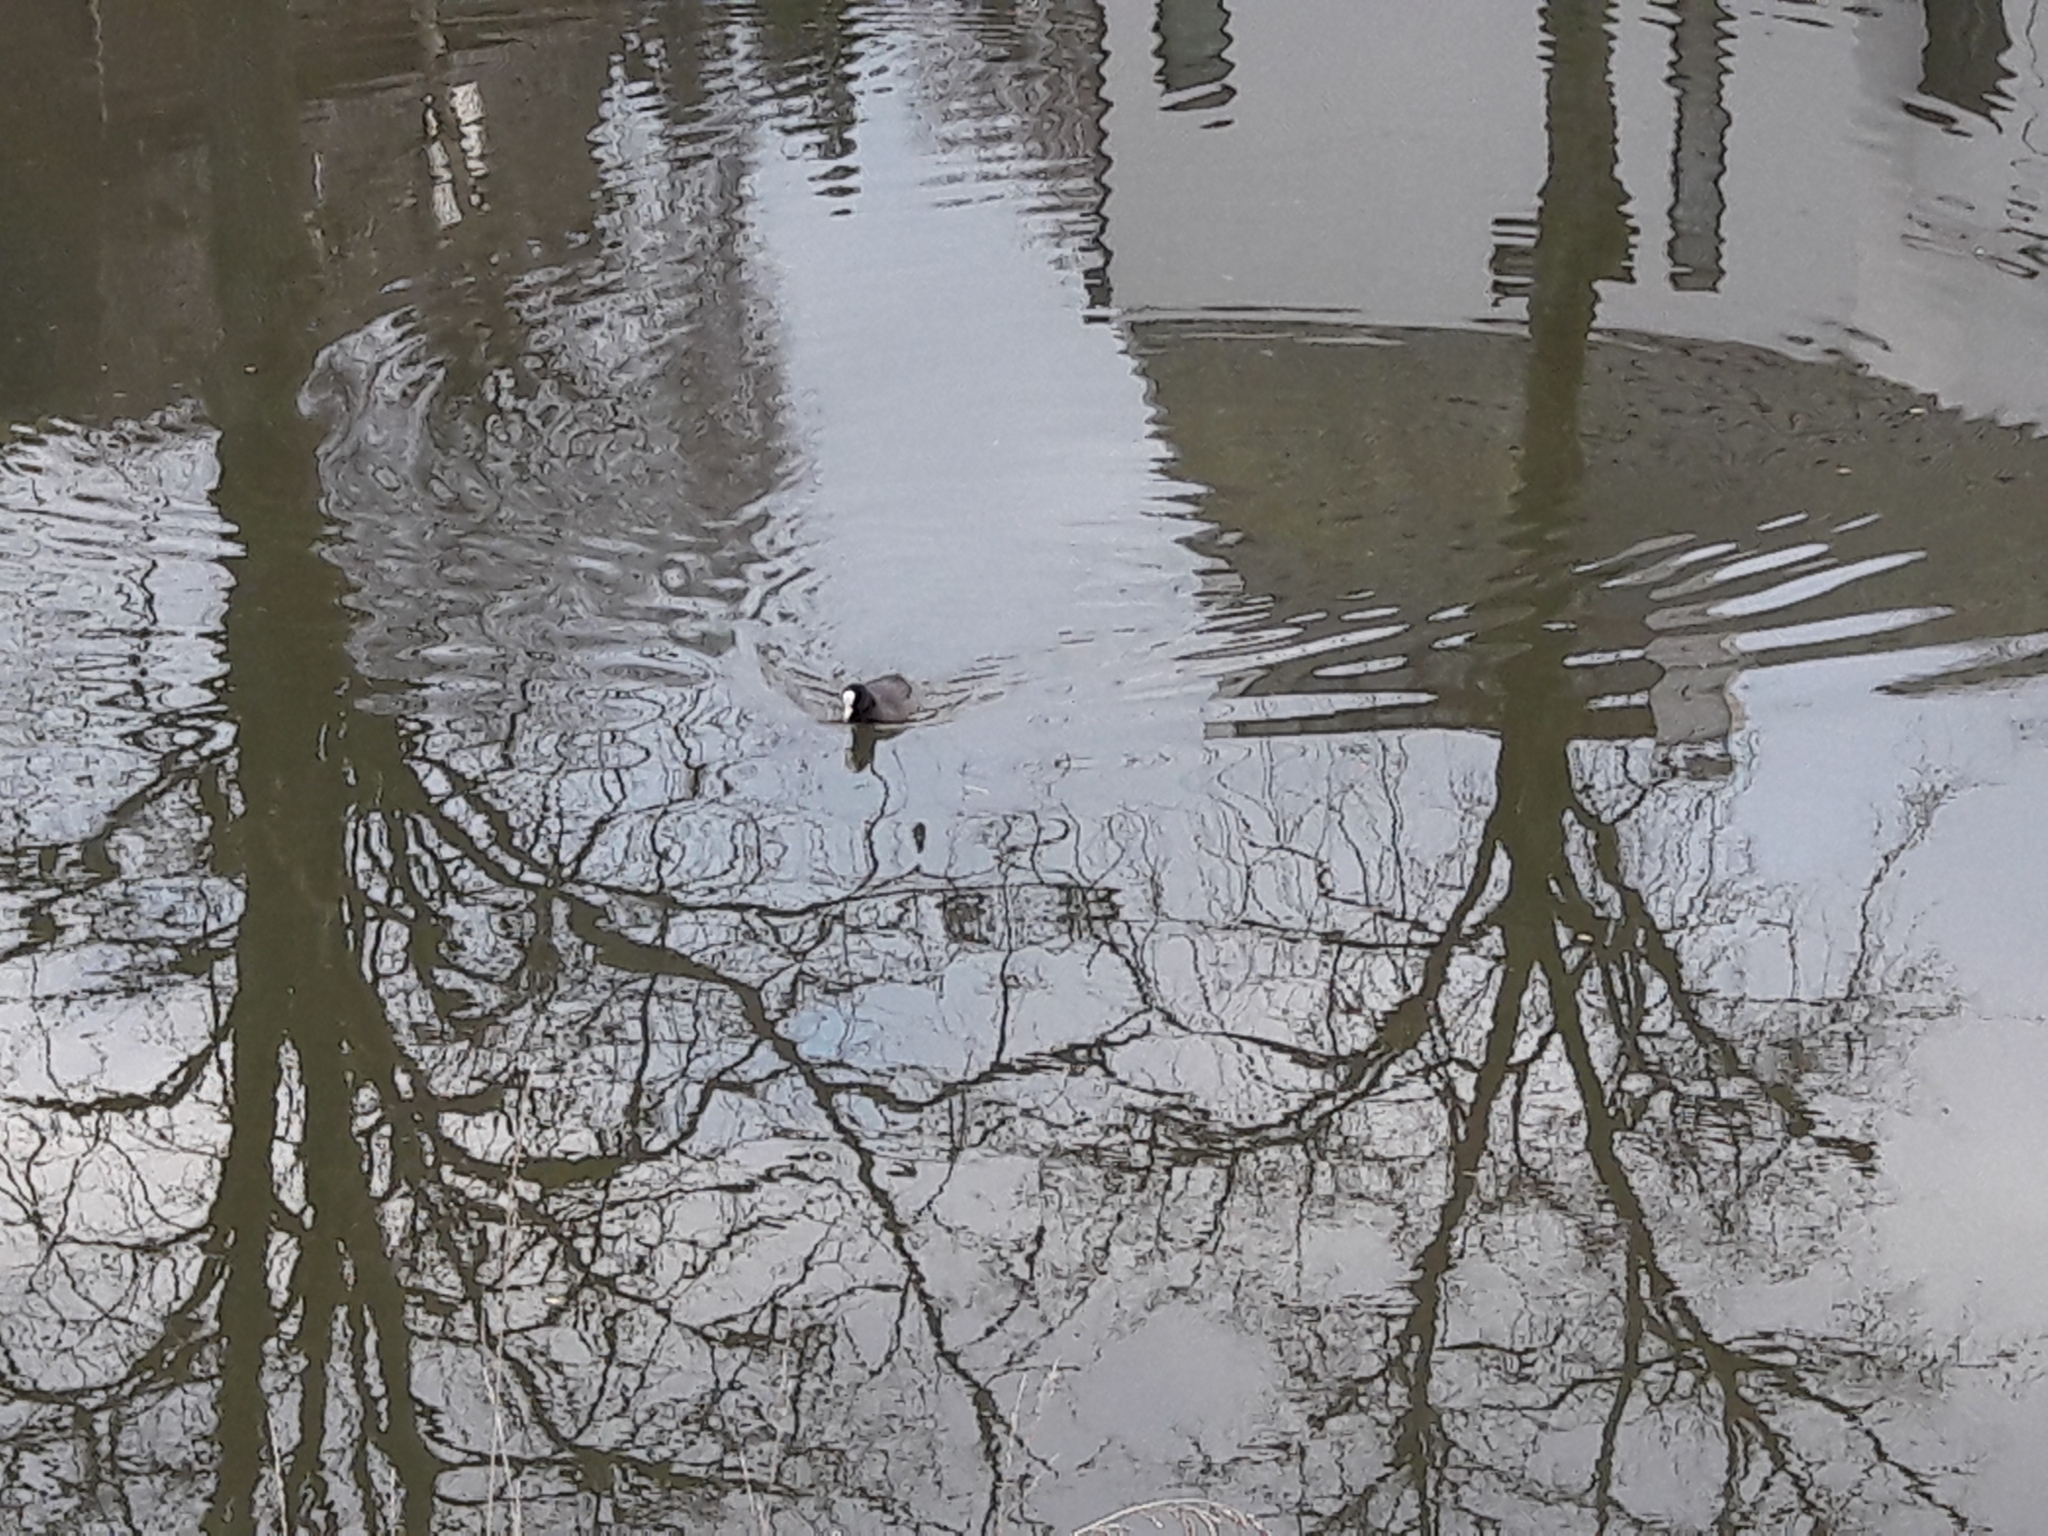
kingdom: Animalia
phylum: Chordata
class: Aves
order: Gruiformes
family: Rallidae
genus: Fulica
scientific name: Fulica atra
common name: Eurasian coot
